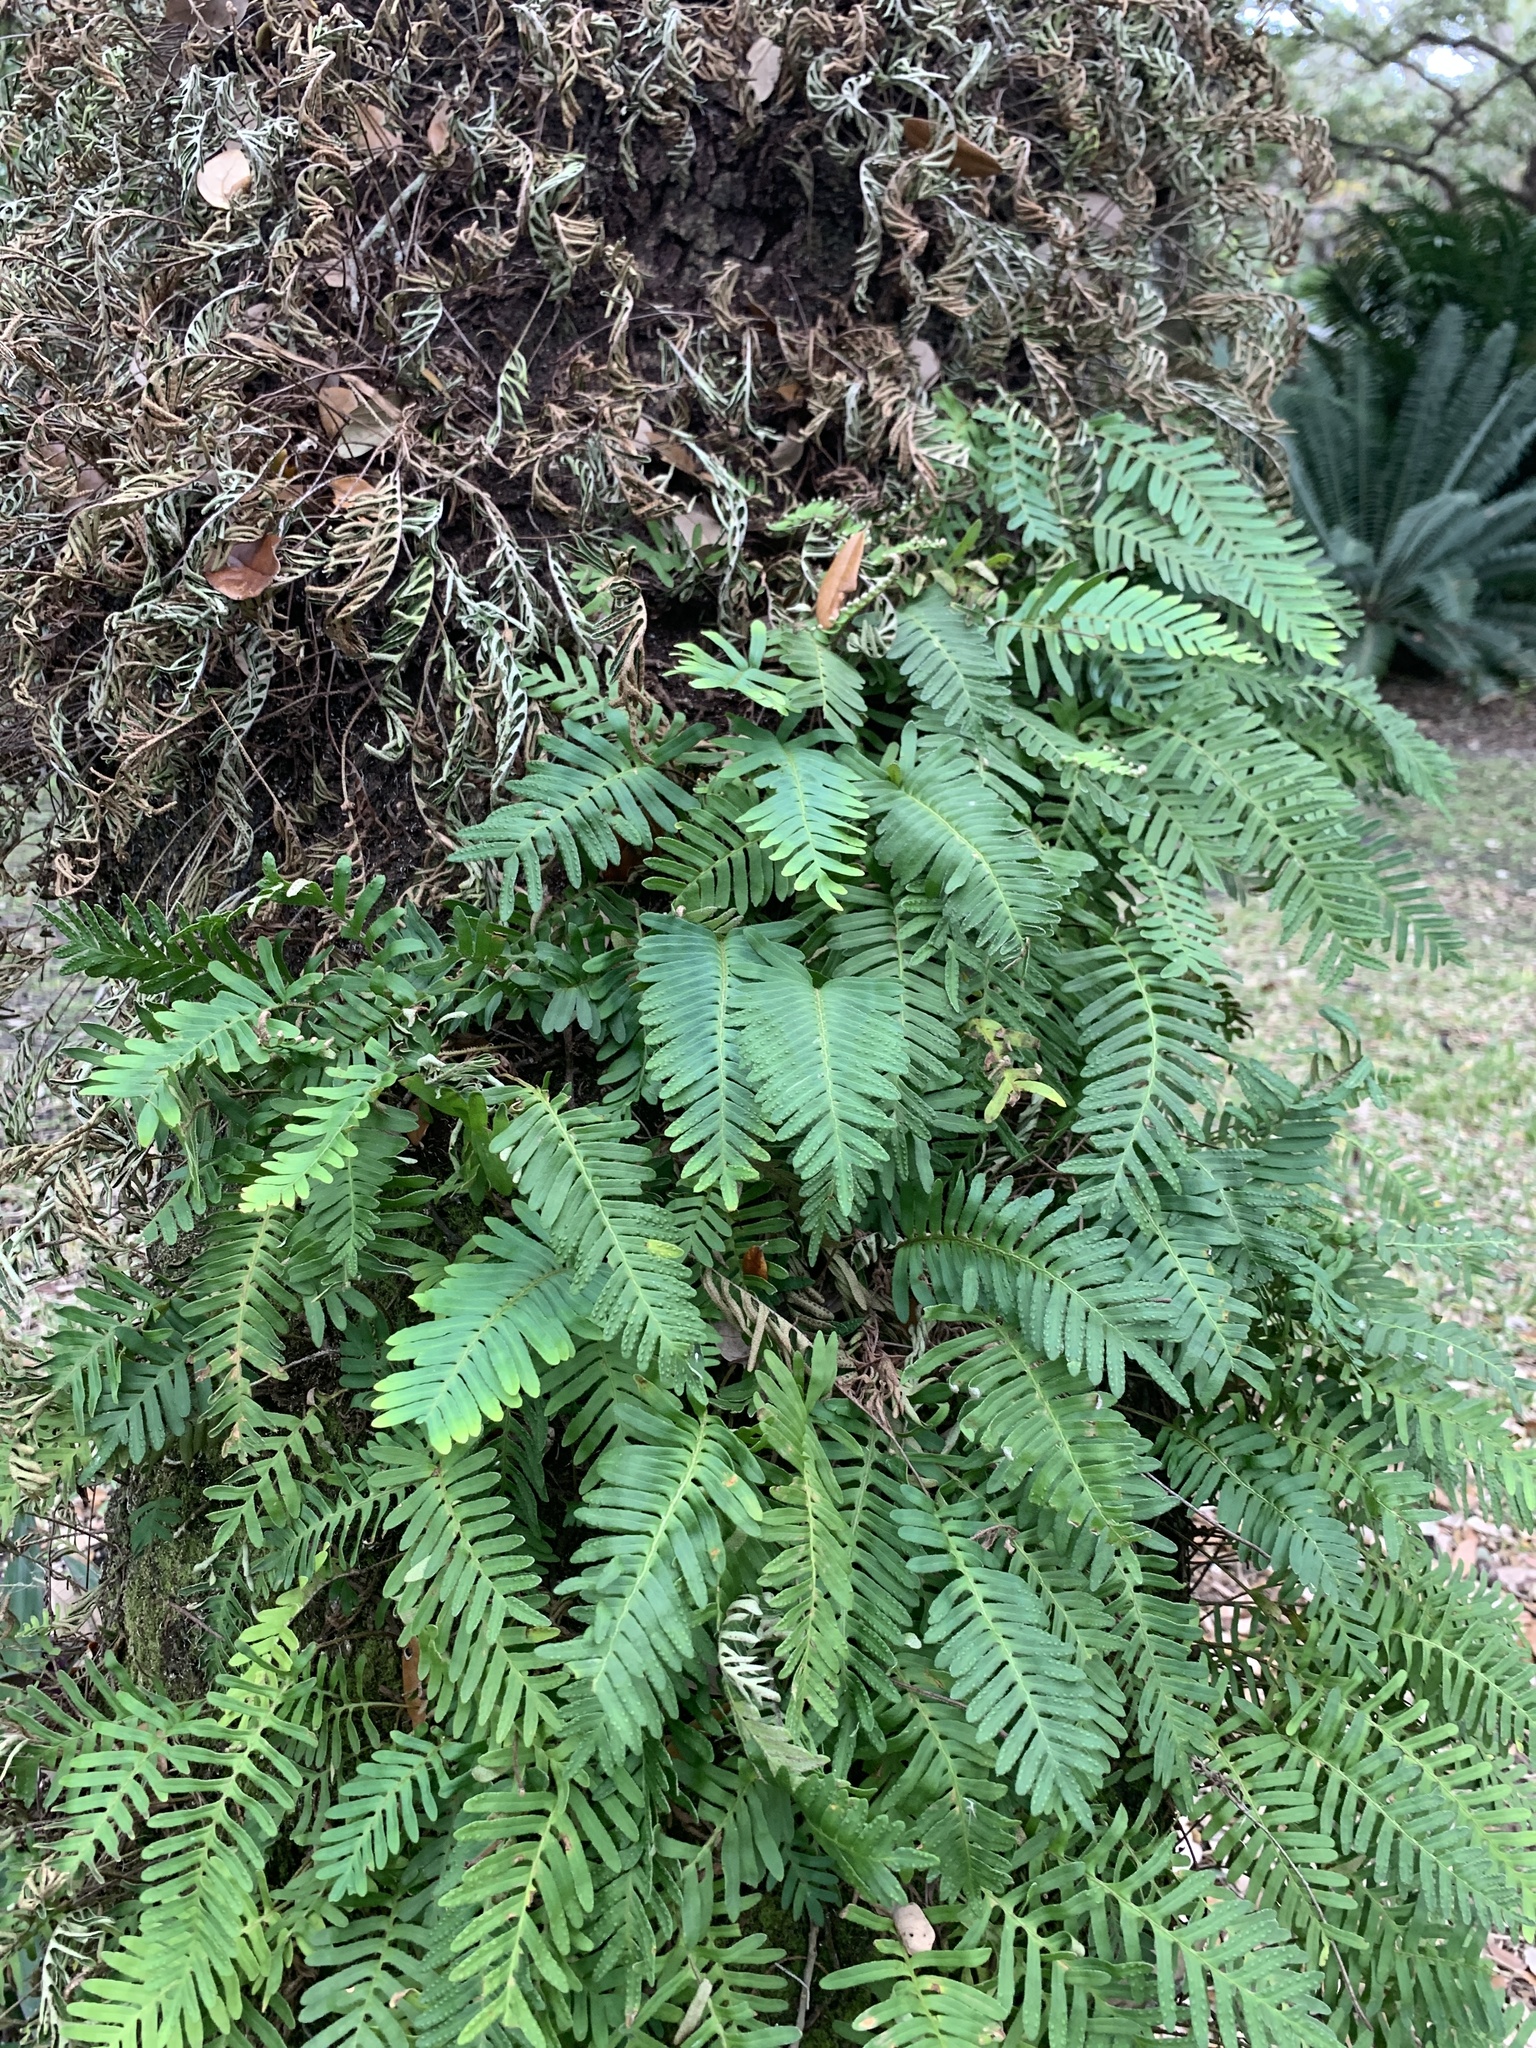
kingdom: Plantae
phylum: Tracheophyta
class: Polypodiopsida
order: Polypodiales
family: Polypodiaceae
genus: Pleopeltis
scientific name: Pleopeltis michauxiana
